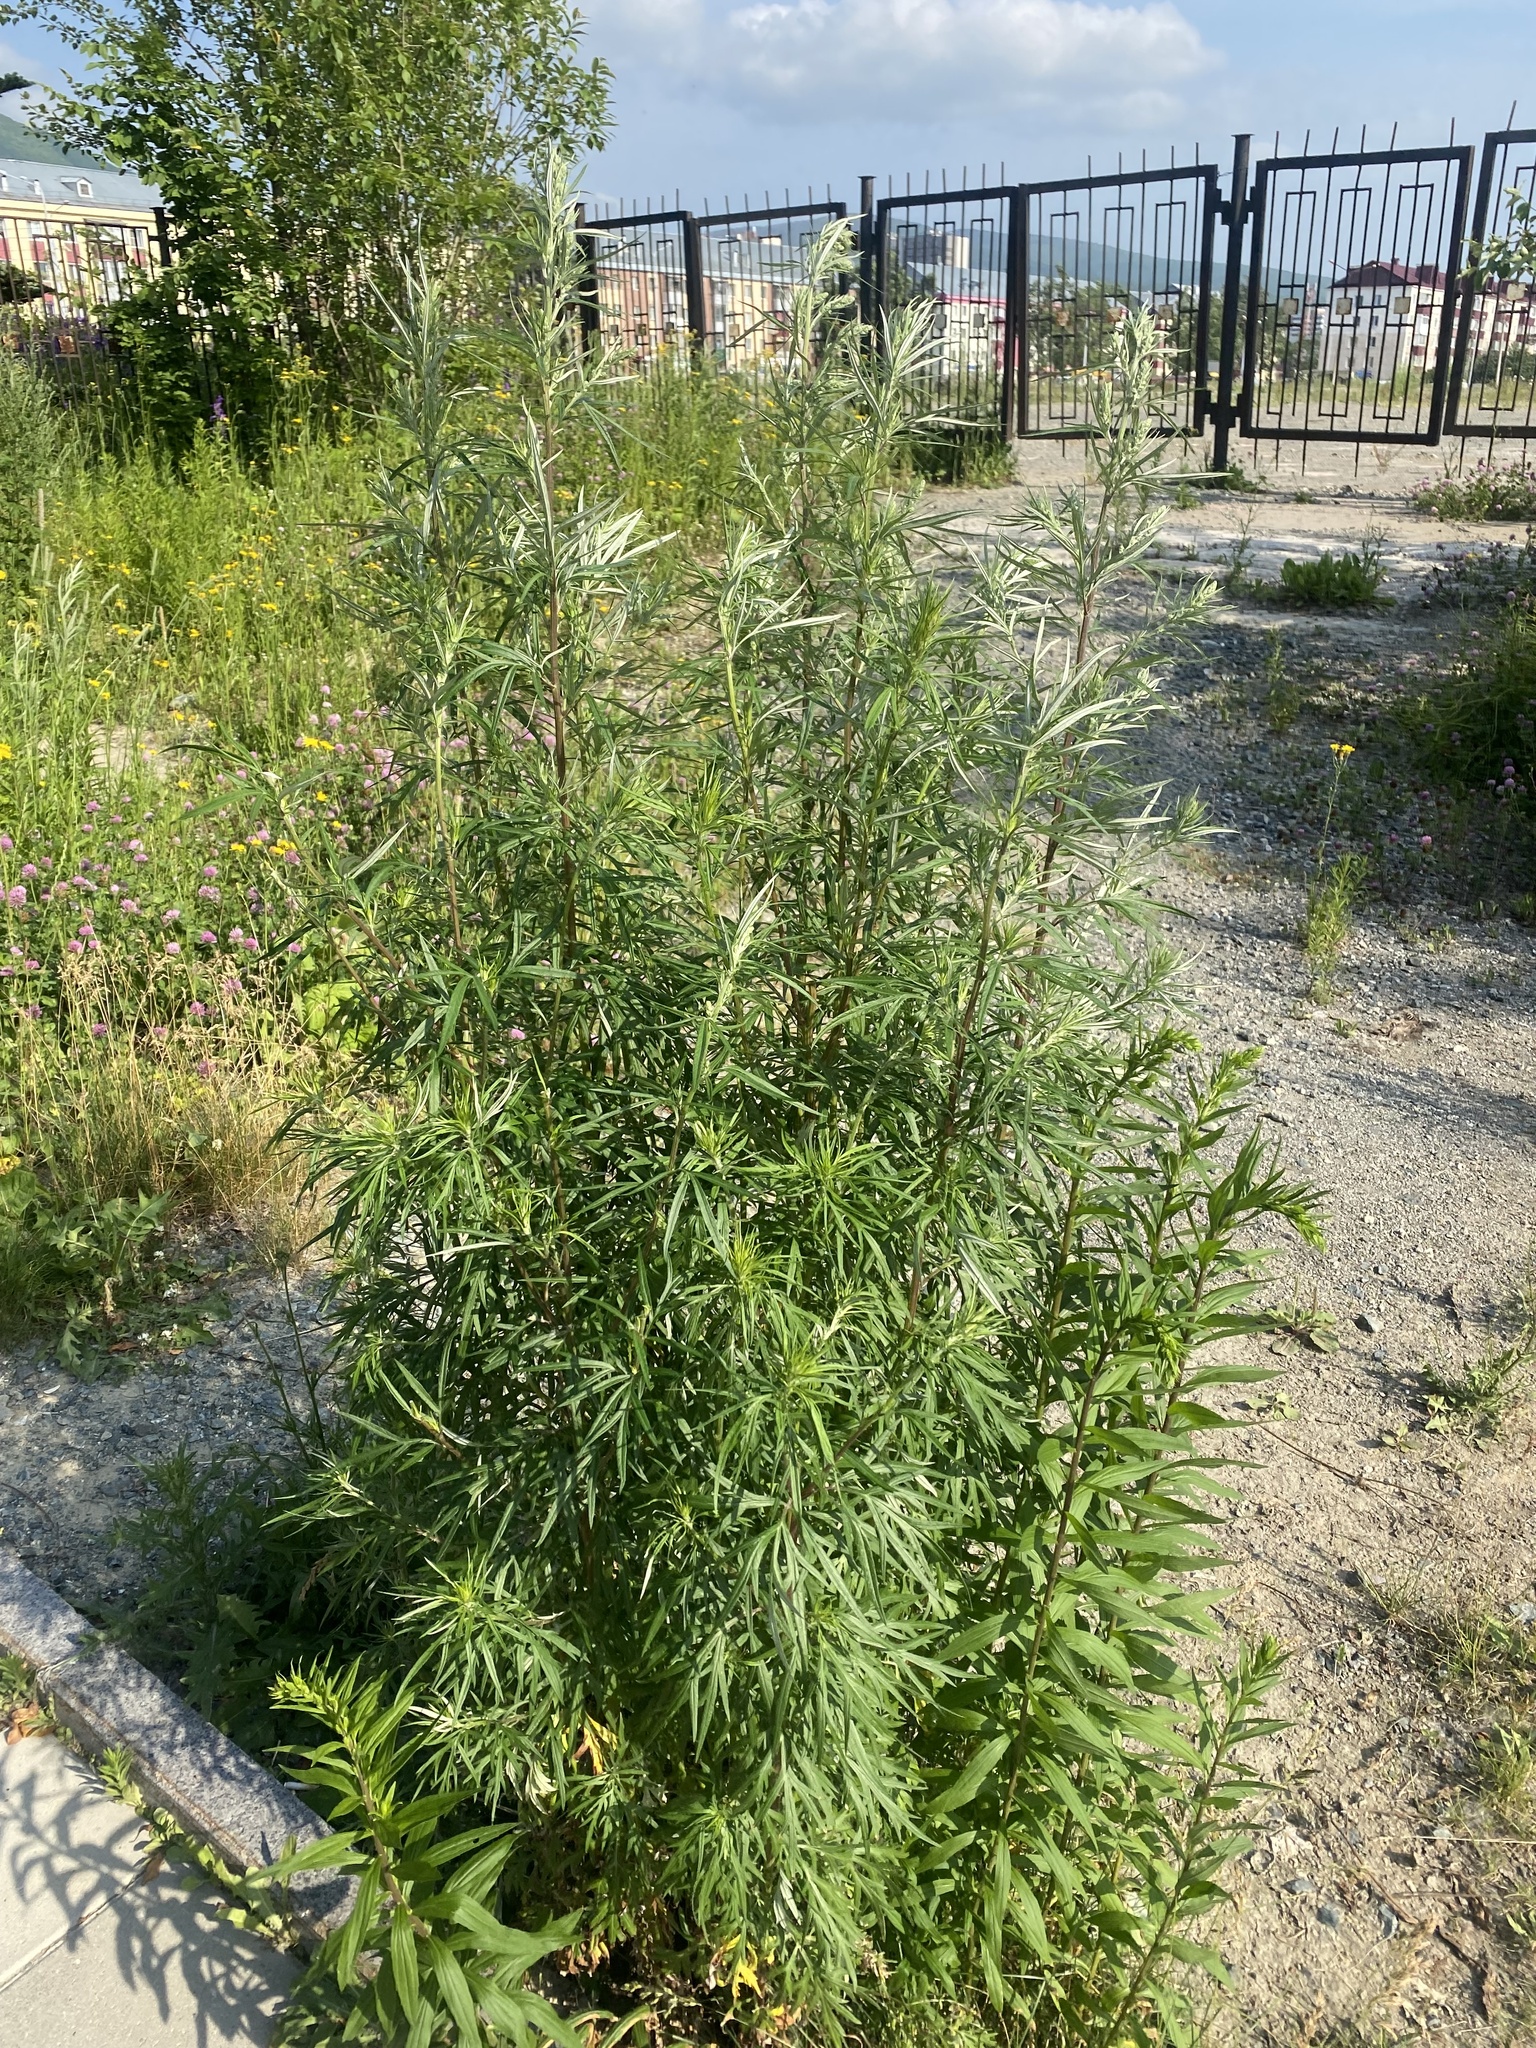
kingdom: Plantae
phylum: Tracheophyta
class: Magnoliopsida
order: Asterales
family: Asteraceae
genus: Artemisia
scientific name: Artemisia vulgaris
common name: Mugwort
